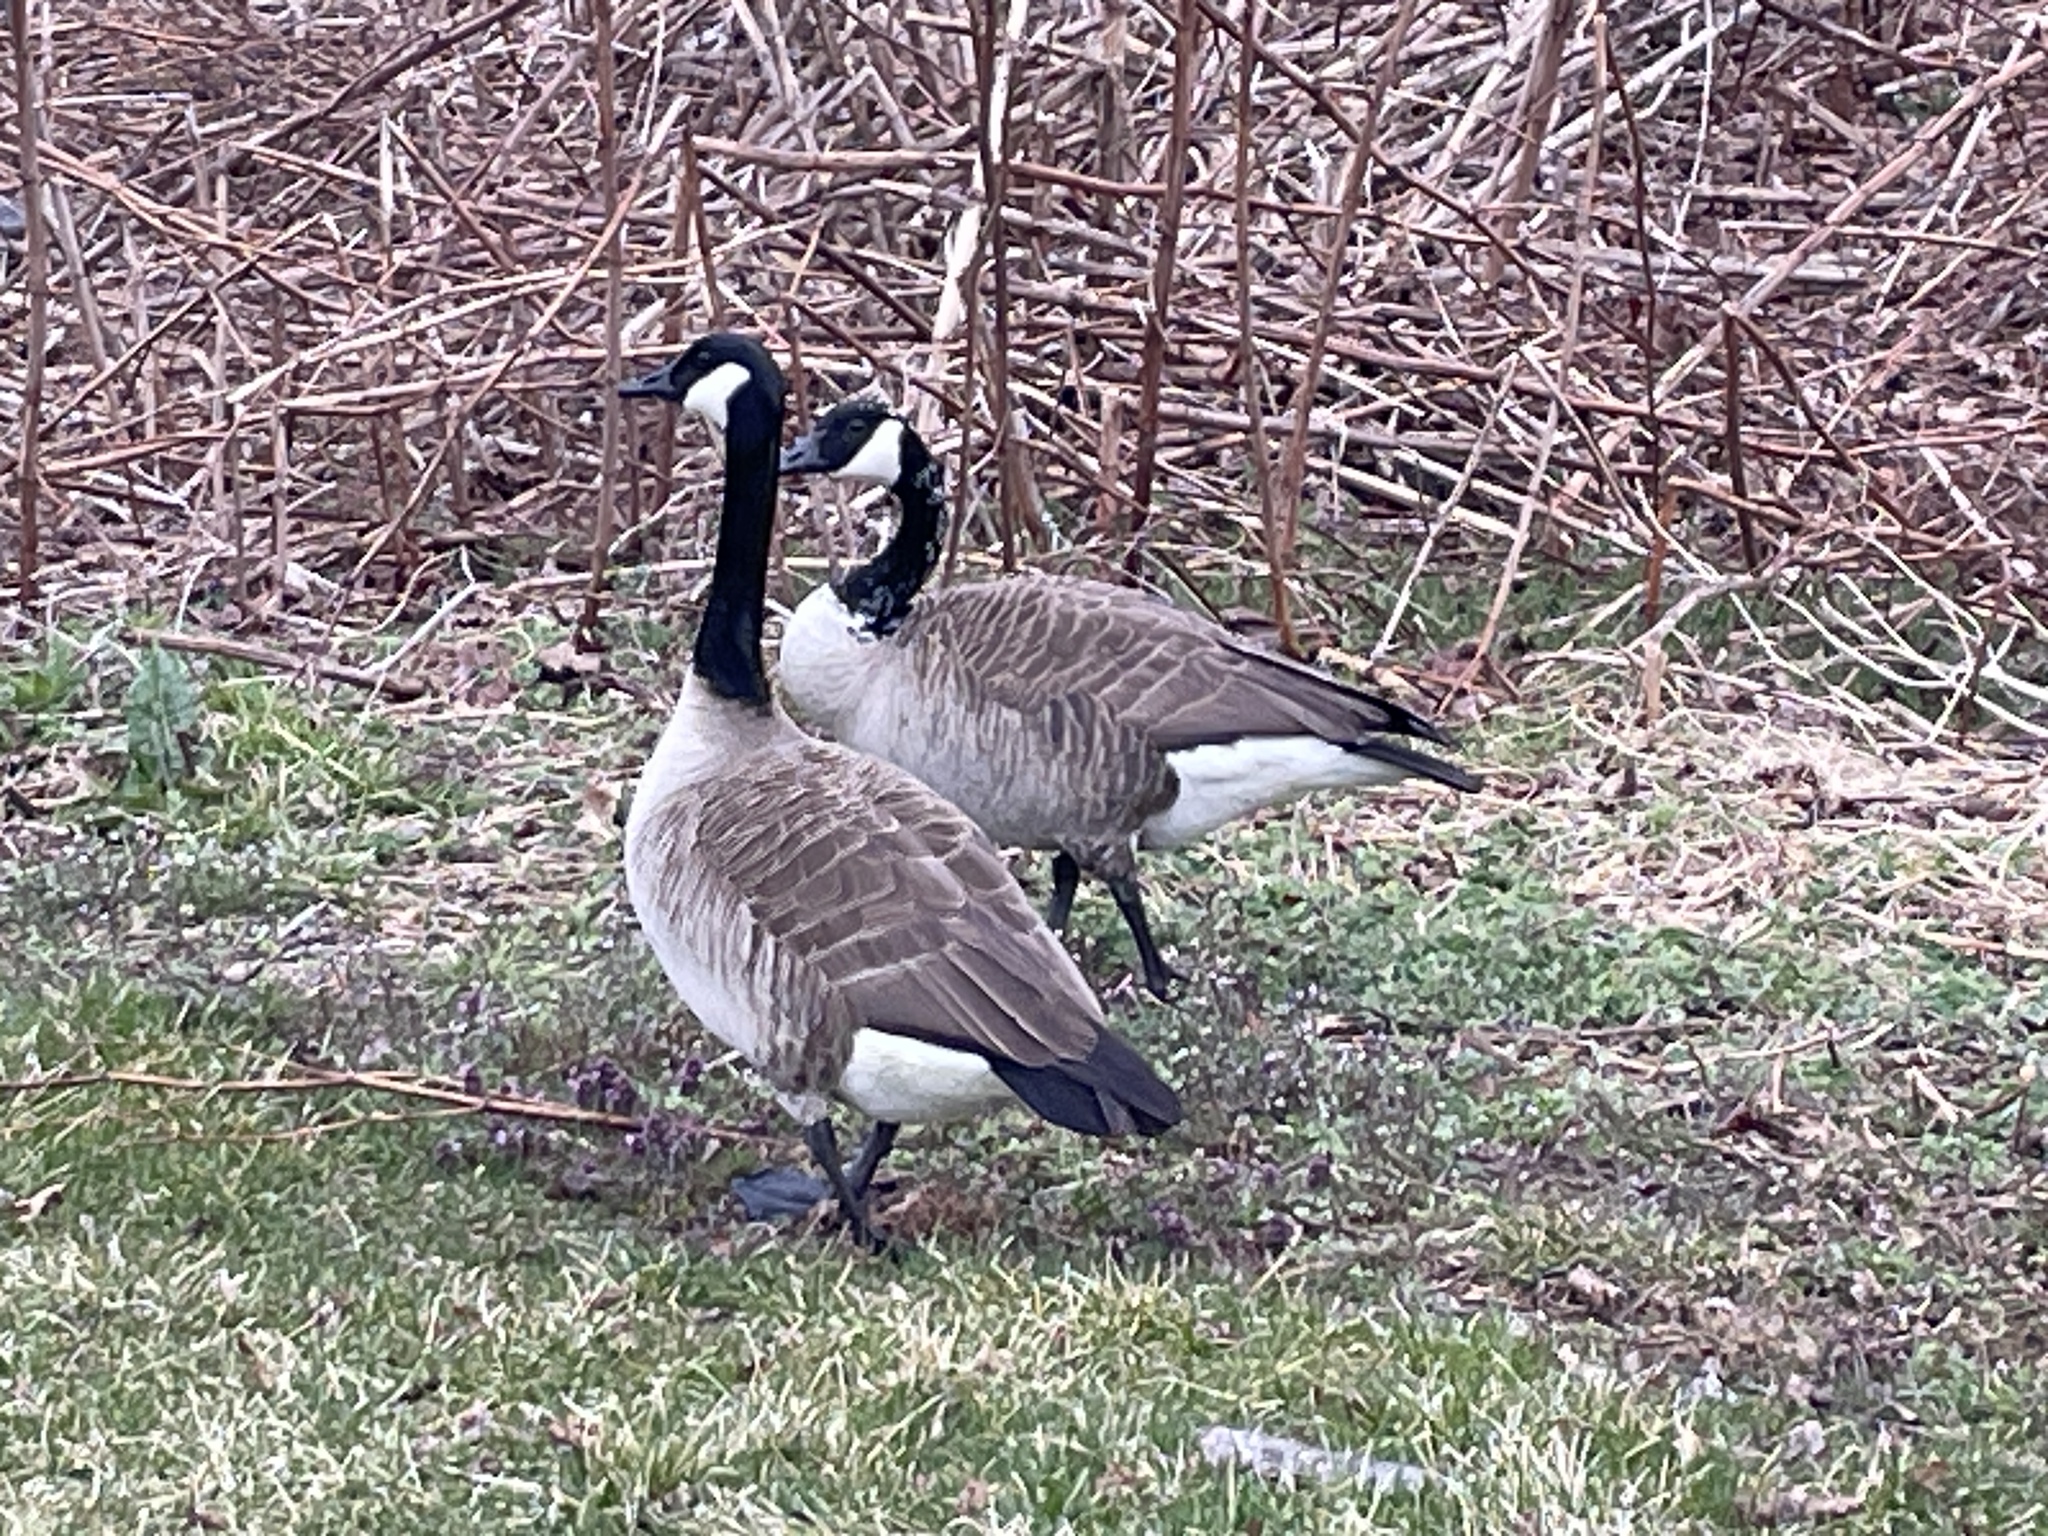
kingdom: Animalia
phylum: Chordata
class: Aves
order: Anseriformes
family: Anatidae
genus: Branta
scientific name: Branta canadensis
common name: Canada goose
